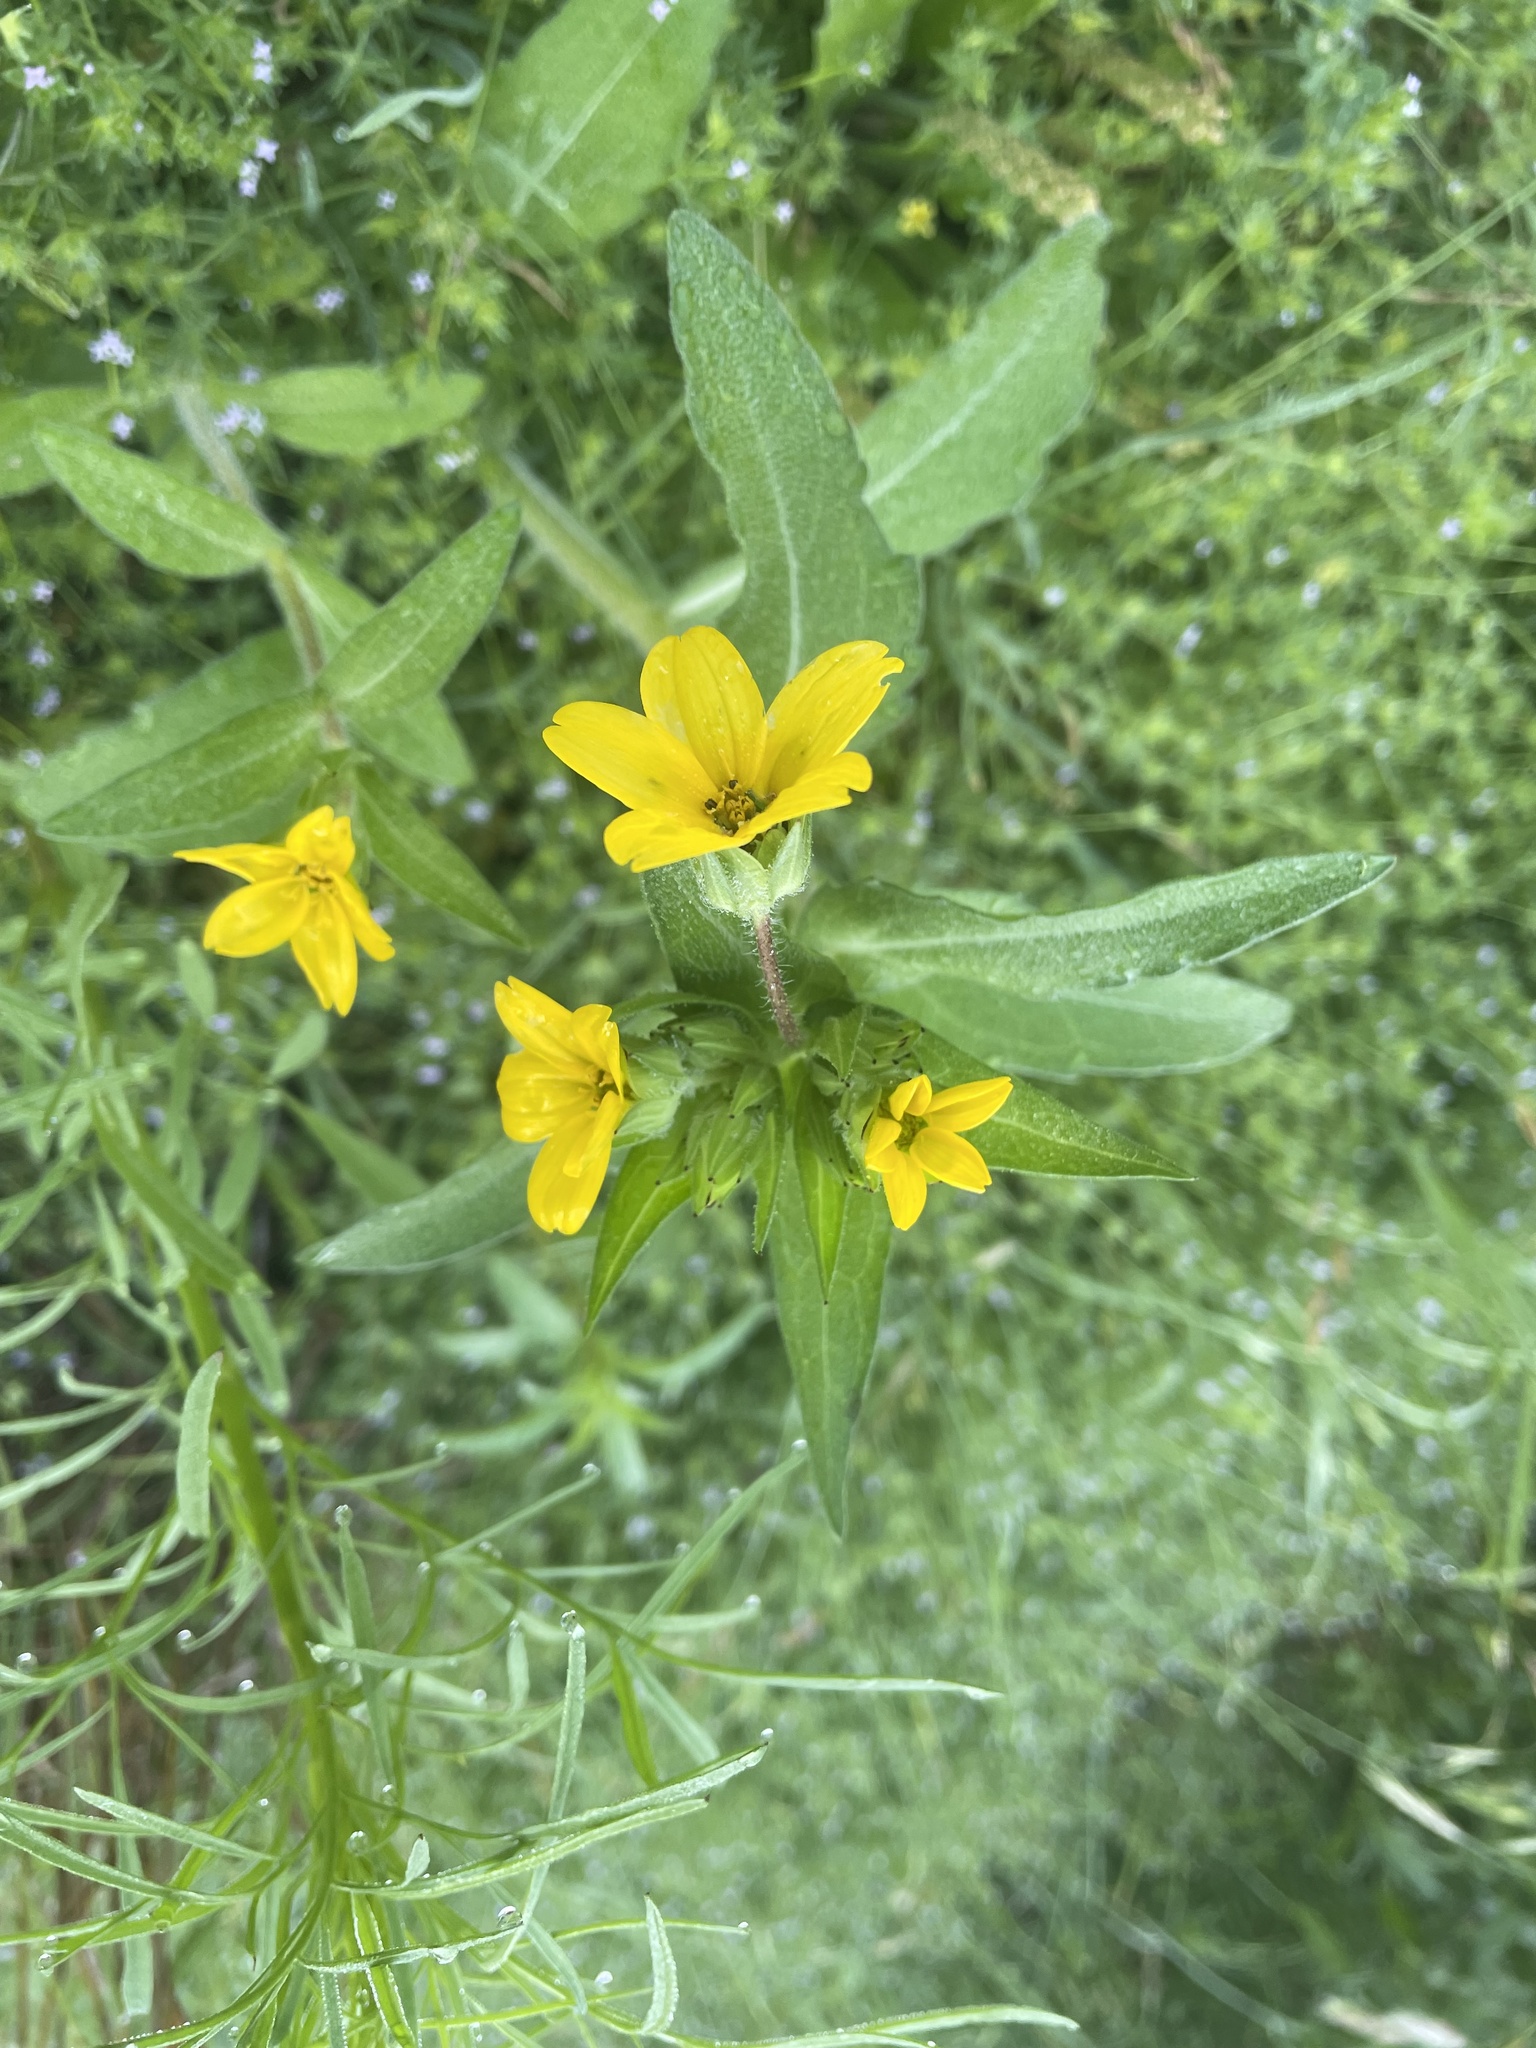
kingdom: Plantae
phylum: Tracheophyta
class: Magnoliopsida
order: Asterales
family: Asteraceae
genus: Lindheimera
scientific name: Lindheimera texana
